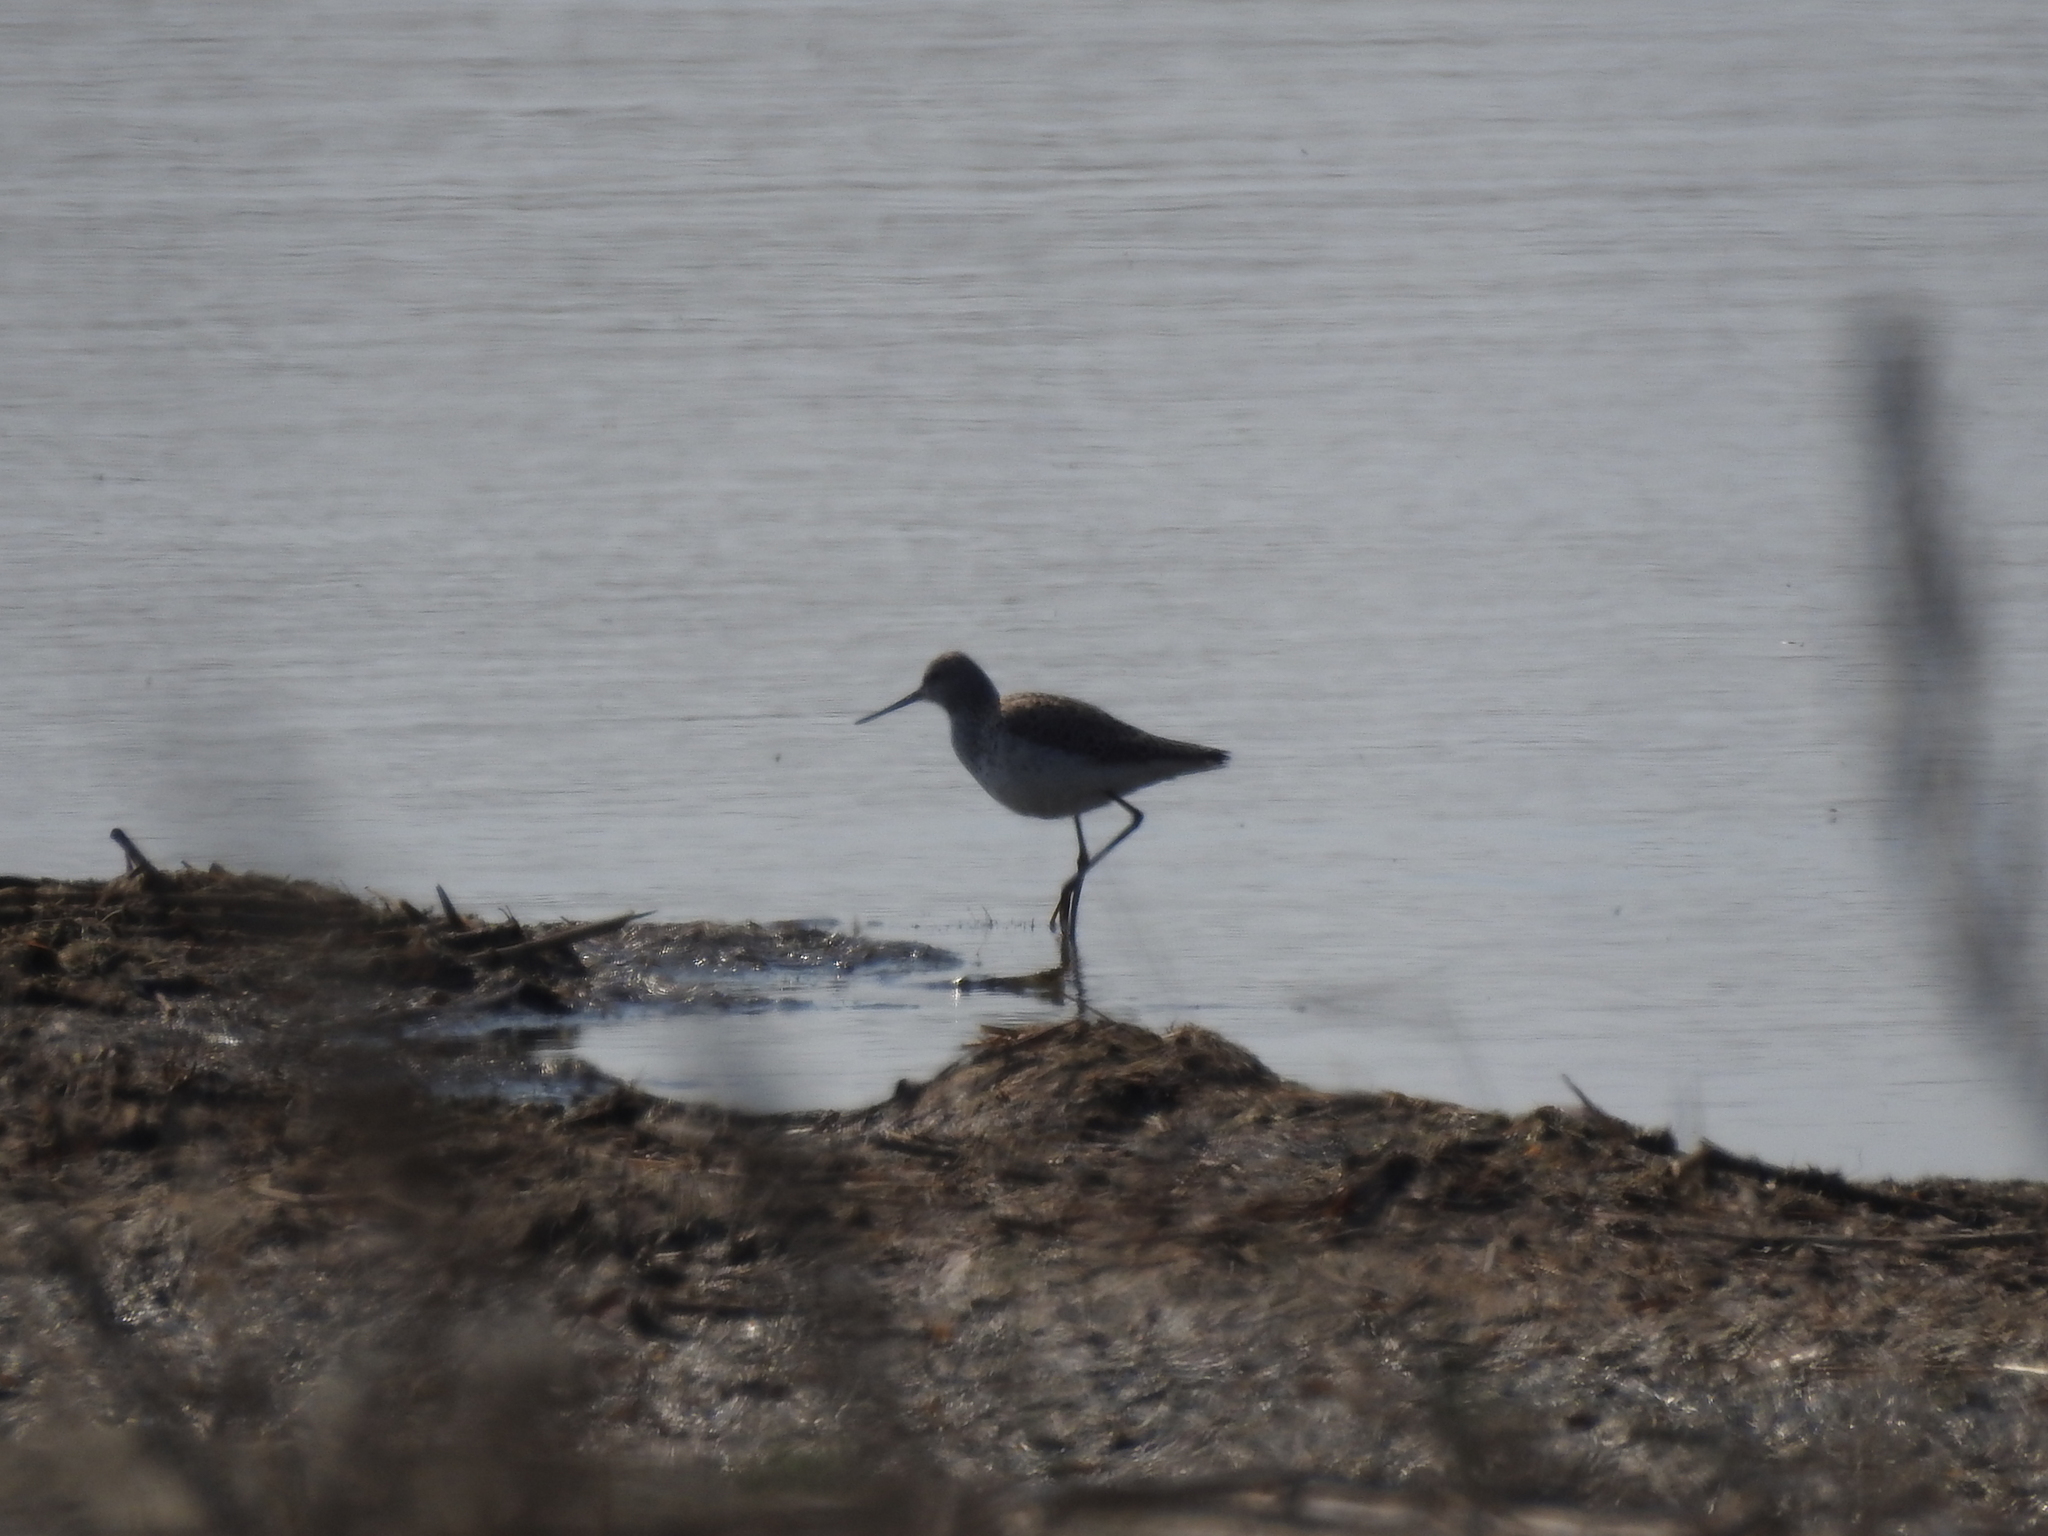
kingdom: Animalia
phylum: Chordata
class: Aves
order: Charadriiformes
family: Scolopacidae
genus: Tringa
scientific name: Tringa stagnatilis
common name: Marsh sandpiper
